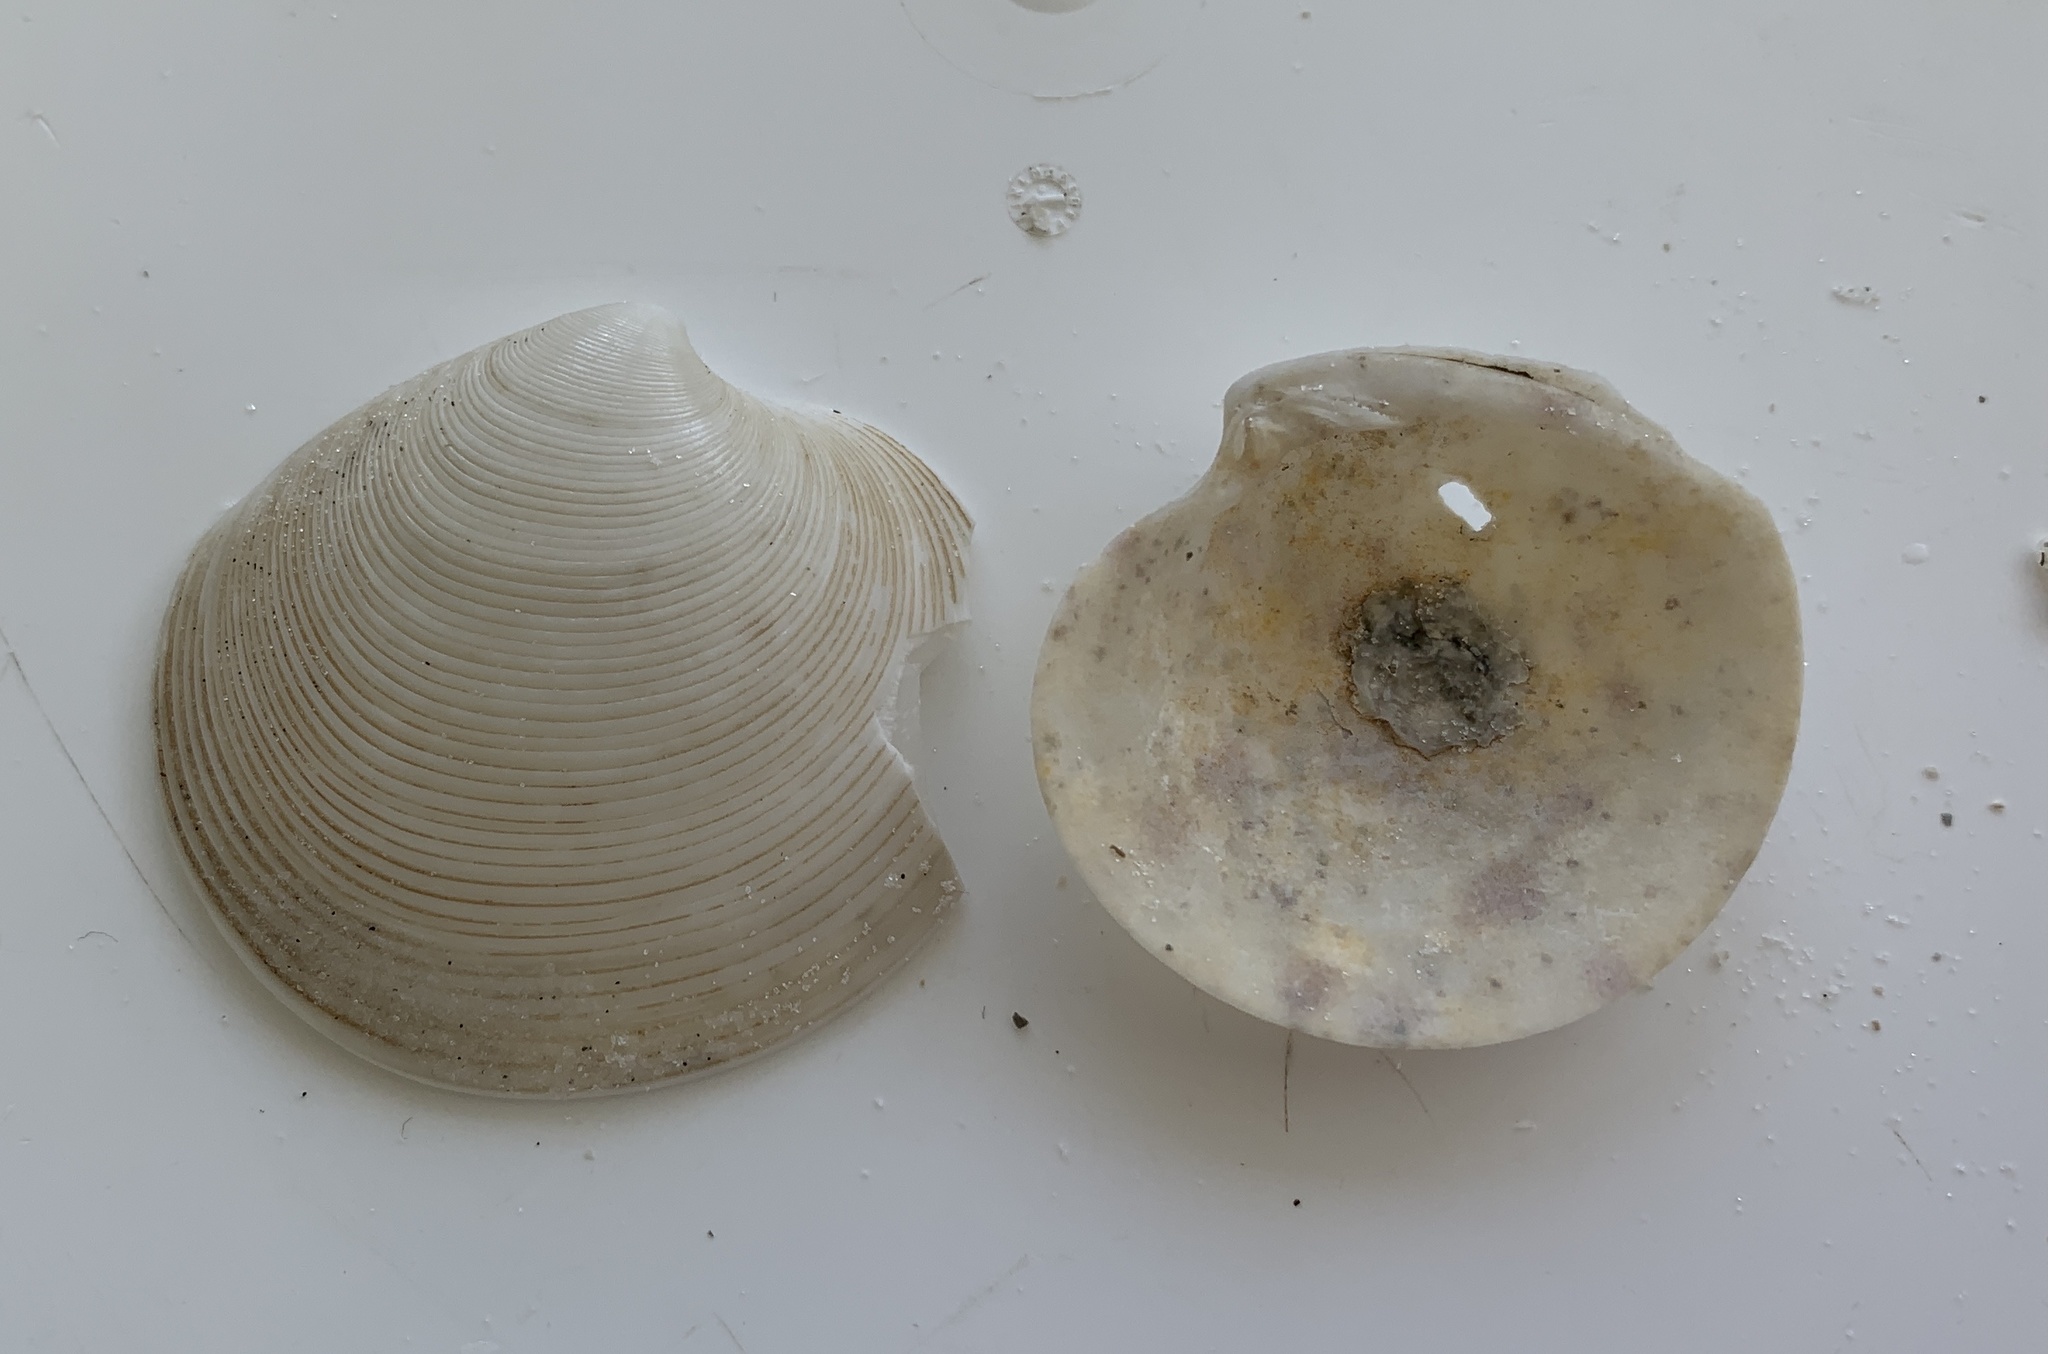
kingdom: Animalia
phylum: Mollusca
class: Bivalvia
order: Venerida
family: Veneridae
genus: Dosinia
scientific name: Dosinia concentrica
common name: Elegant dosinia
